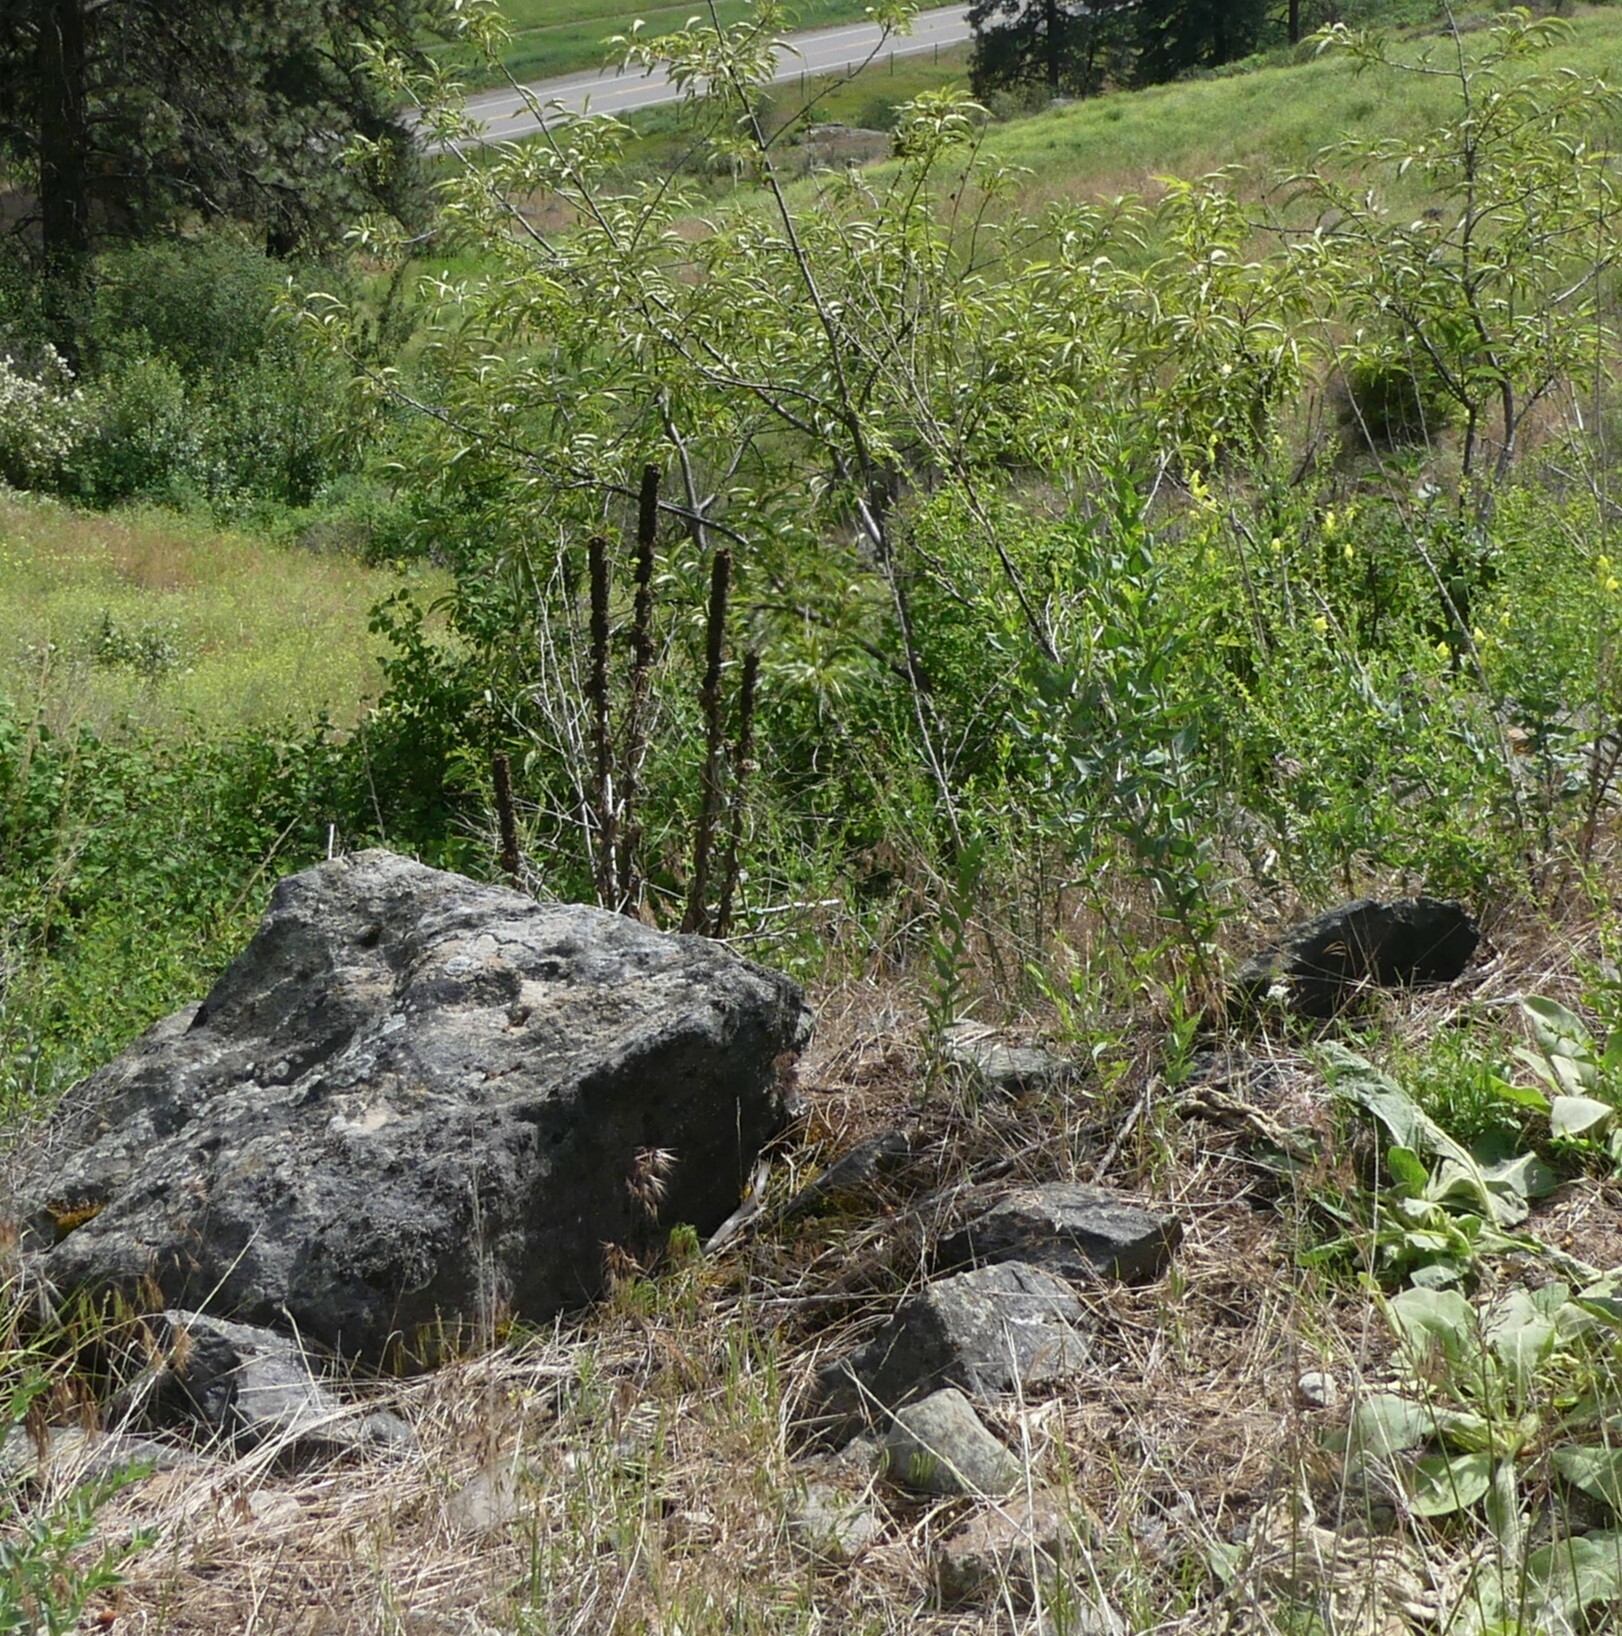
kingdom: Plantae
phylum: Tracheophyta
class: Magnoliopsida
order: Lamiales
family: Scrophulariaceae
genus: Verbascum
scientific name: Verbascum thapsus
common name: Common mullein
